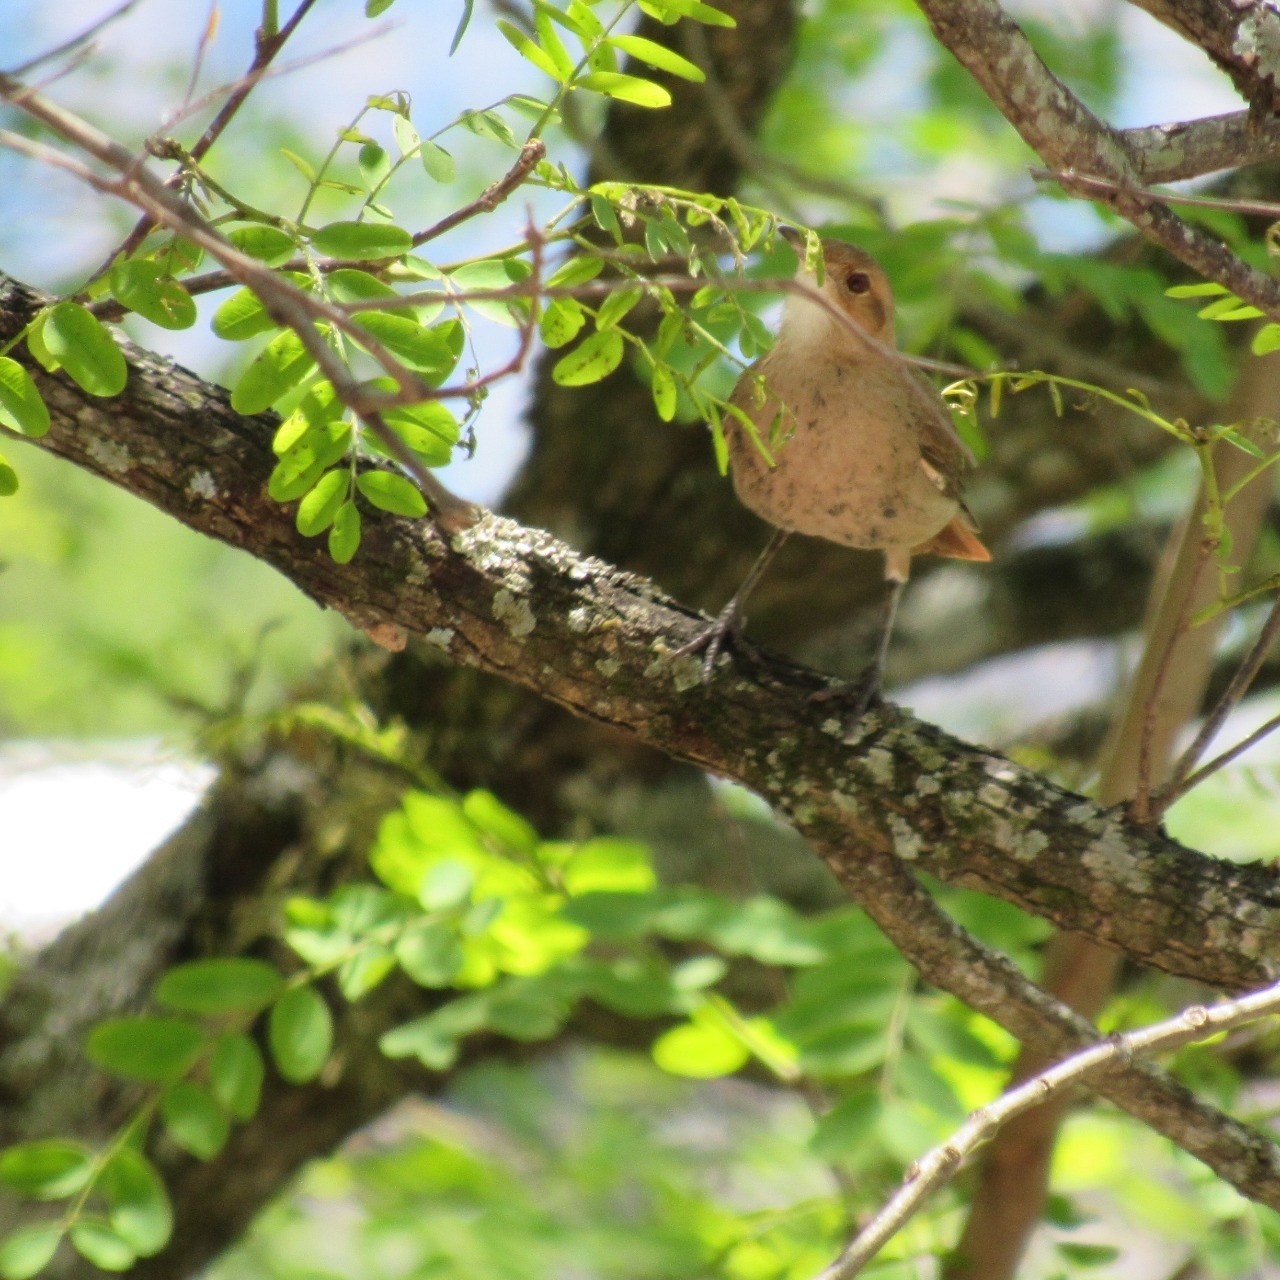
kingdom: Animalia
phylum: Chordata
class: Aves
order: Passeriformes
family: Furnariidae
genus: Furnarius
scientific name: Furnarius rufus
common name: Rufous hornero
